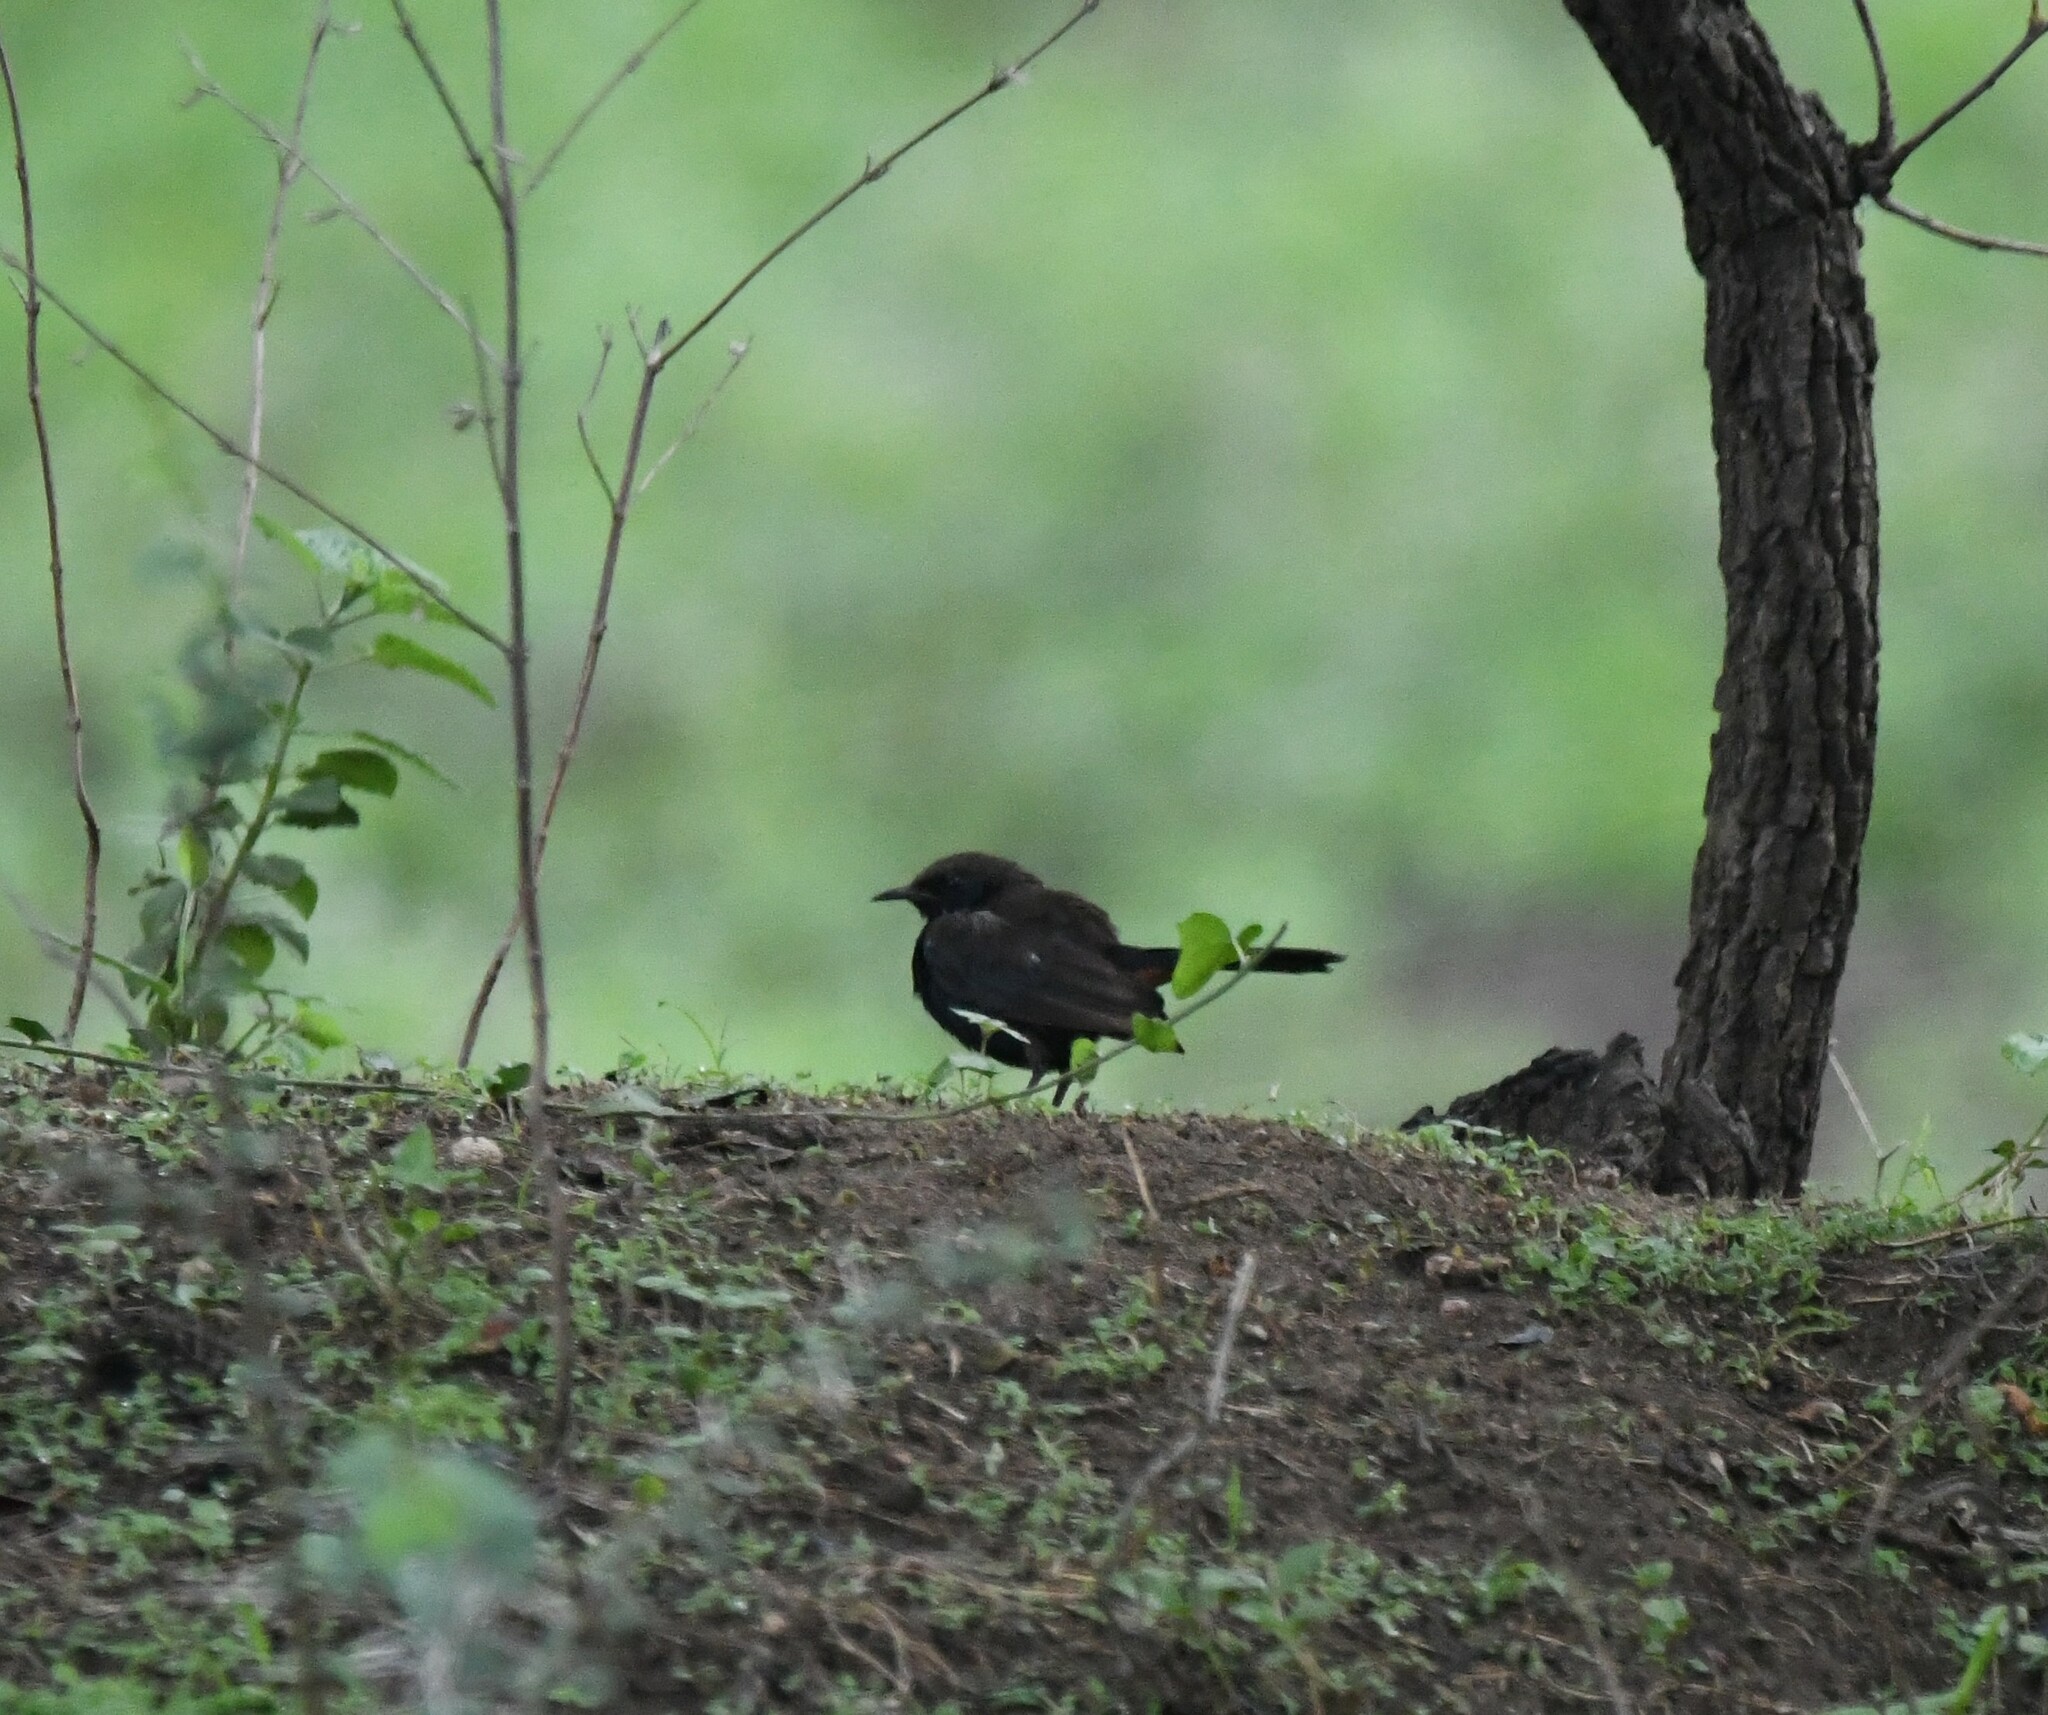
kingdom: Animalia
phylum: Chordata
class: Aves
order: Passeriformes
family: Muscicapidae
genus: Saxicoloides
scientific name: Saxicoloides fulicatus
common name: Indian robin
